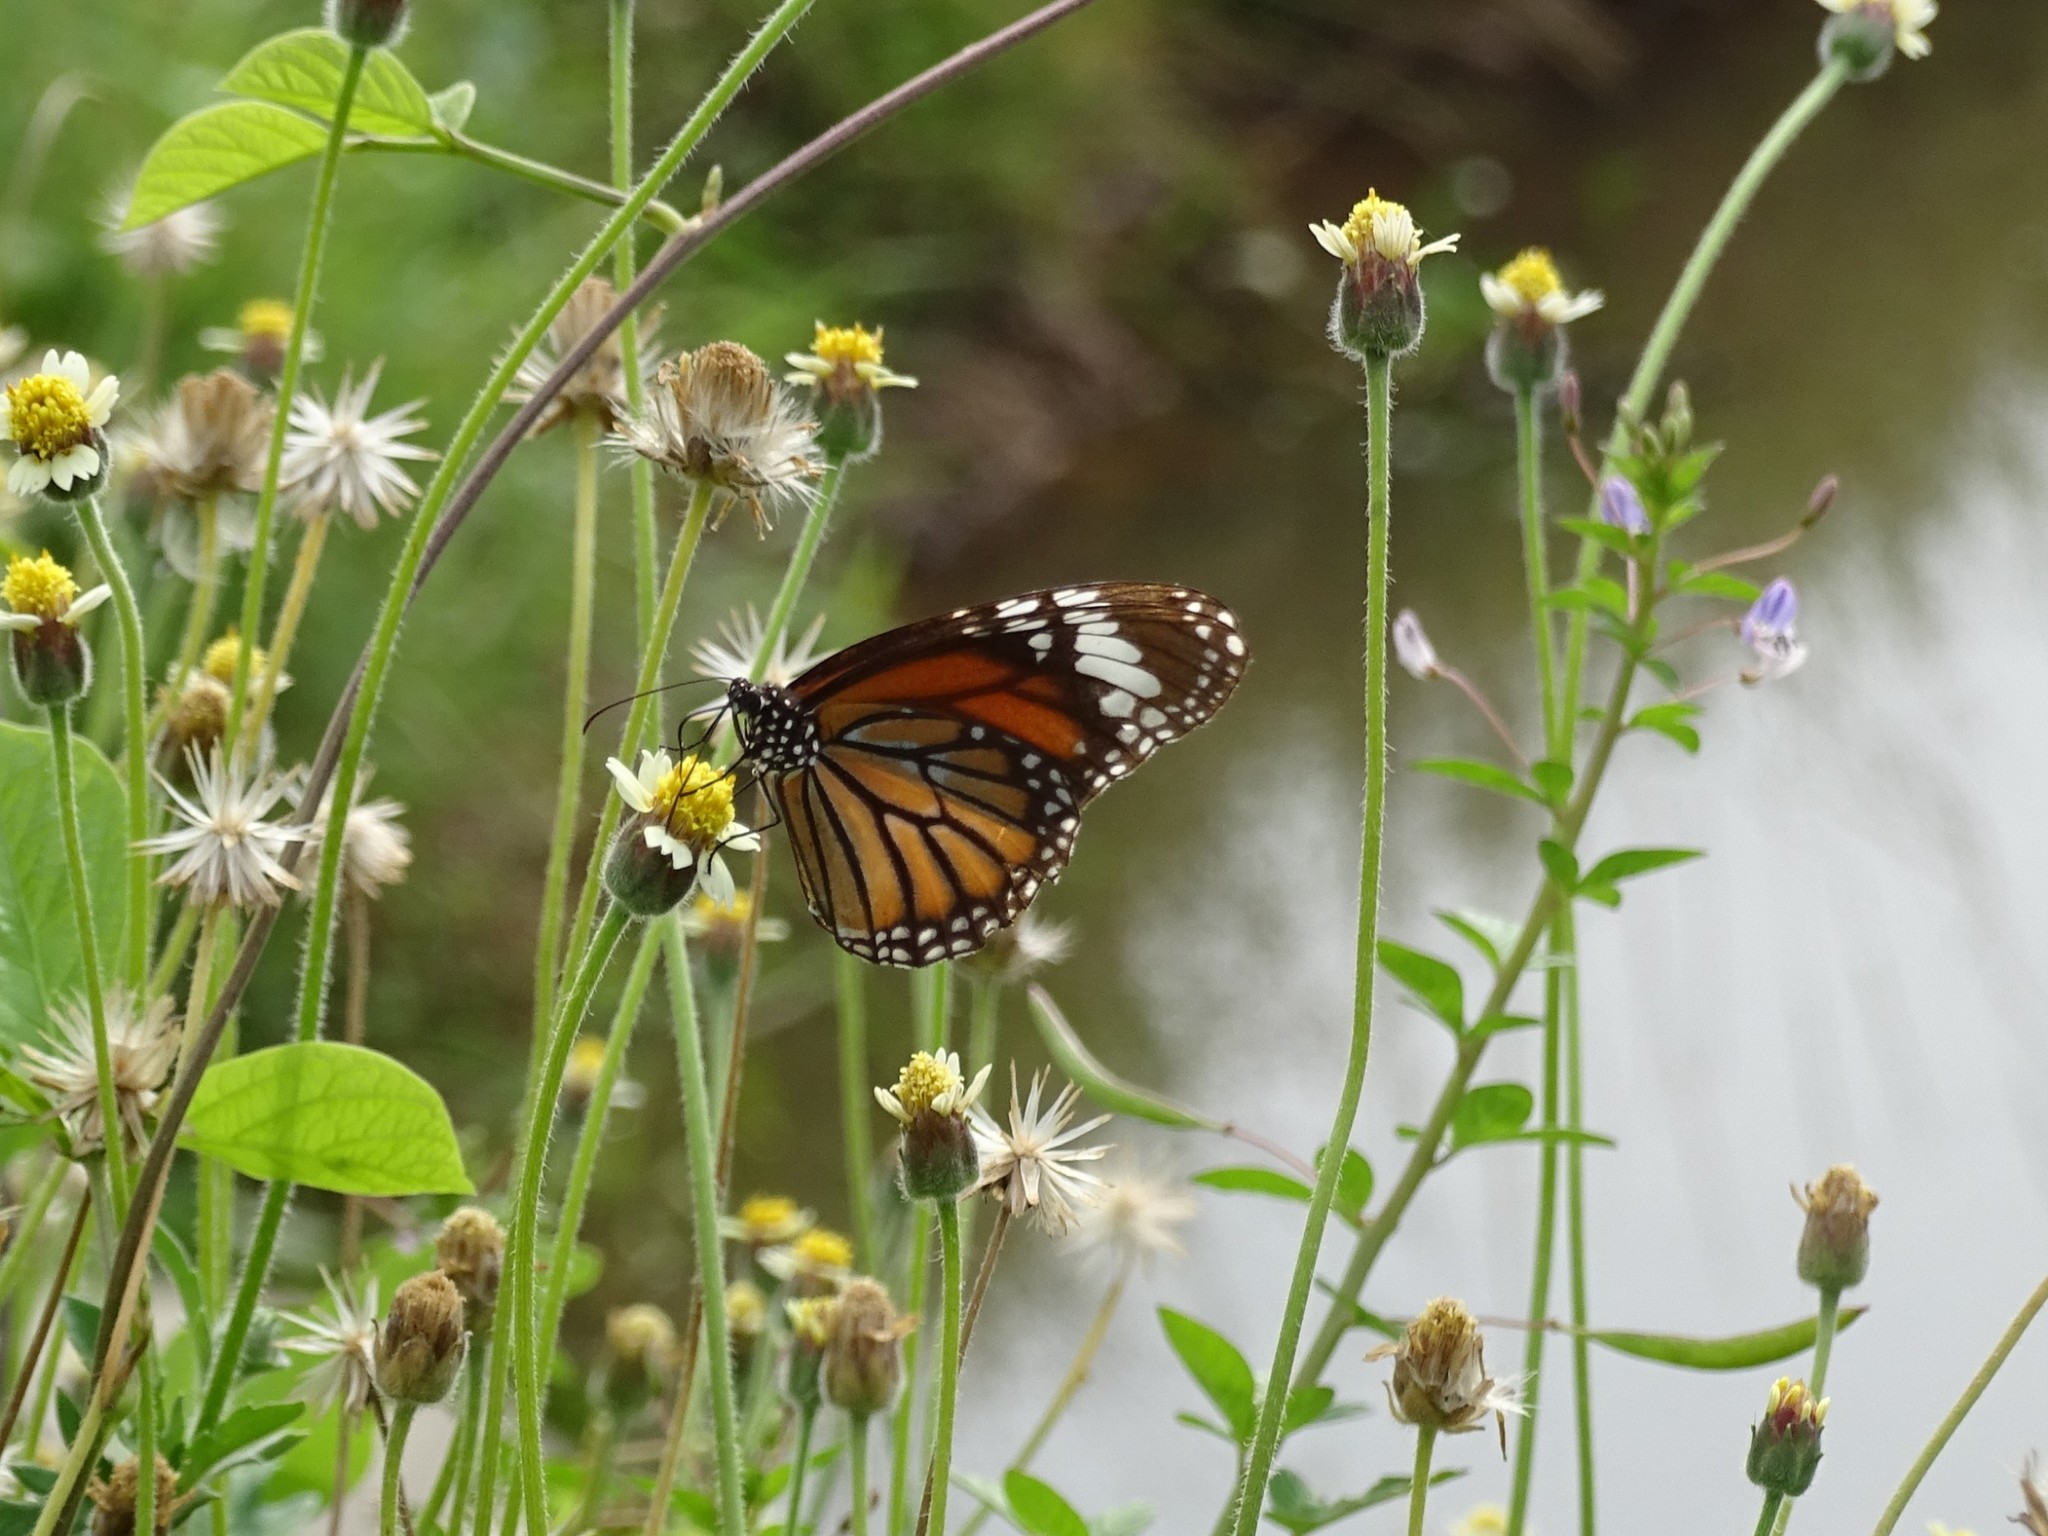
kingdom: Animalia
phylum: Arthropoda
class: Insecta
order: Lepidoptera
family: Nymphalidae
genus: Danaus
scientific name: Danaus genutia
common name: Common tiger butterfly
